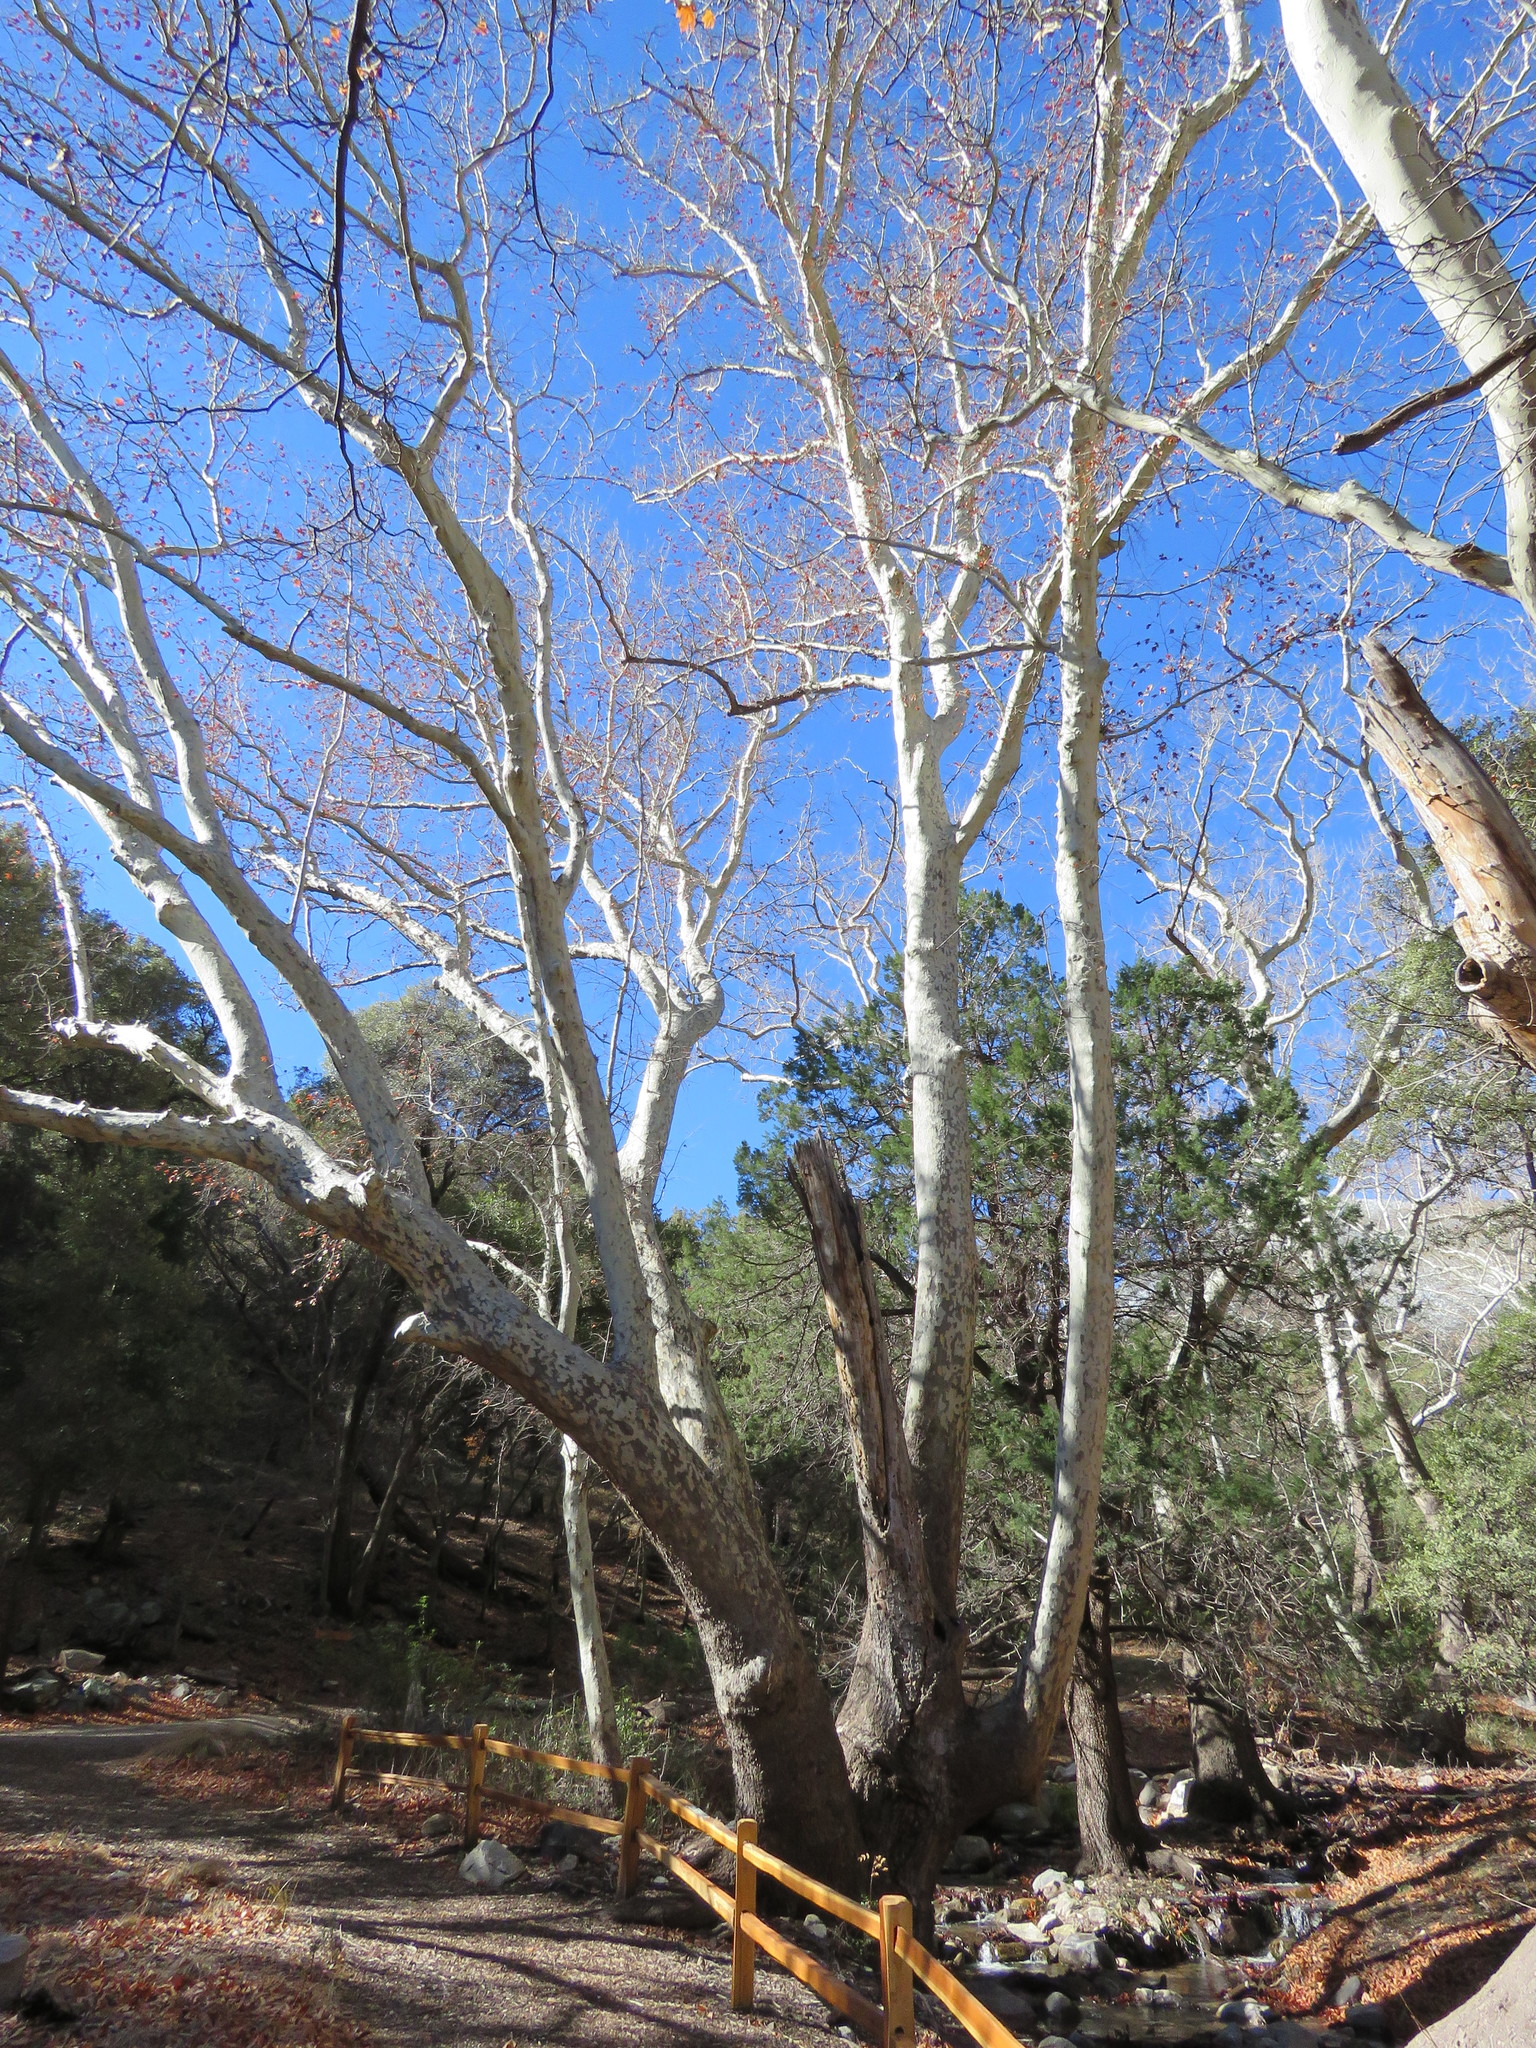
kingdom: Plantae
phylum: Tracheophyta
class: Magnoliopsida
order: Proteales
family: Platanaceae
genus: Platanus
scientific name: Platanus wrightii
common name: Arizona sycamore
